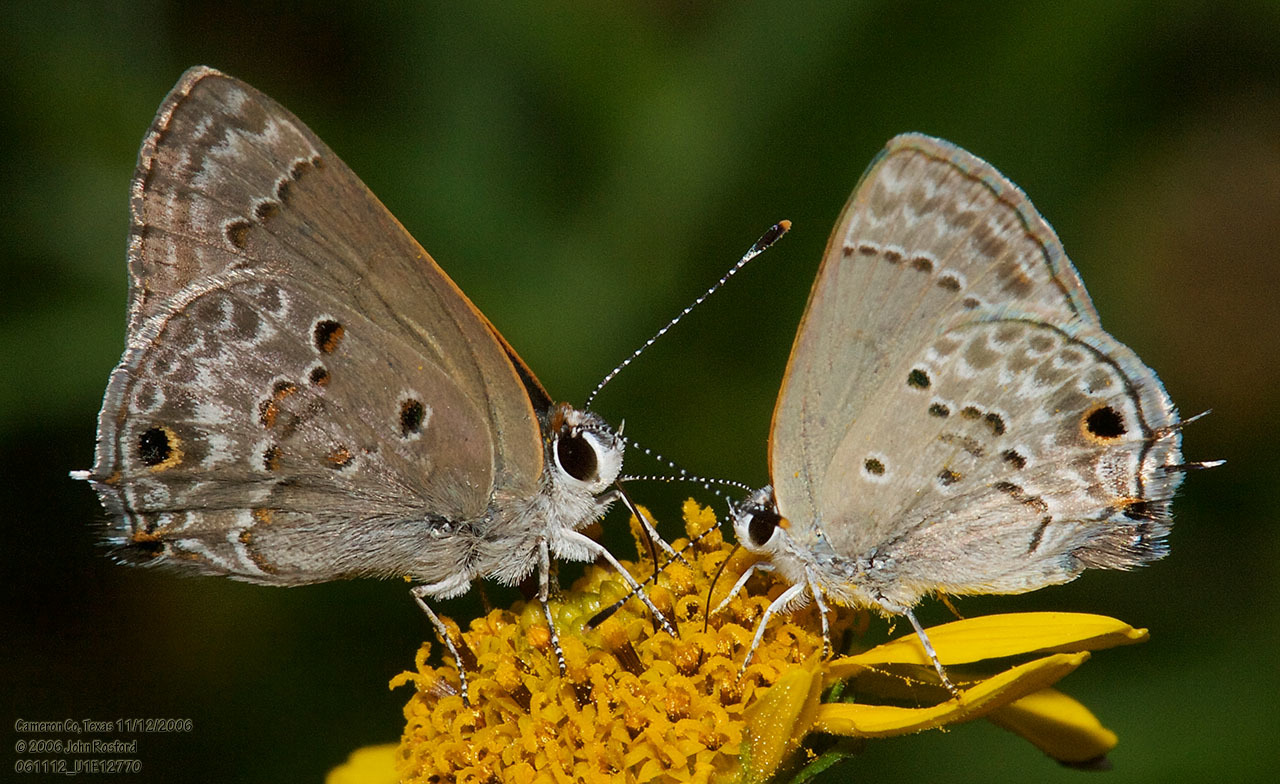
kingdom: Animalia
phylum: Arthropoda
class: Insecta
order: Lepidoptera
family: Lycaenidae
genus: Callicista
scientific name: Callicista columella
